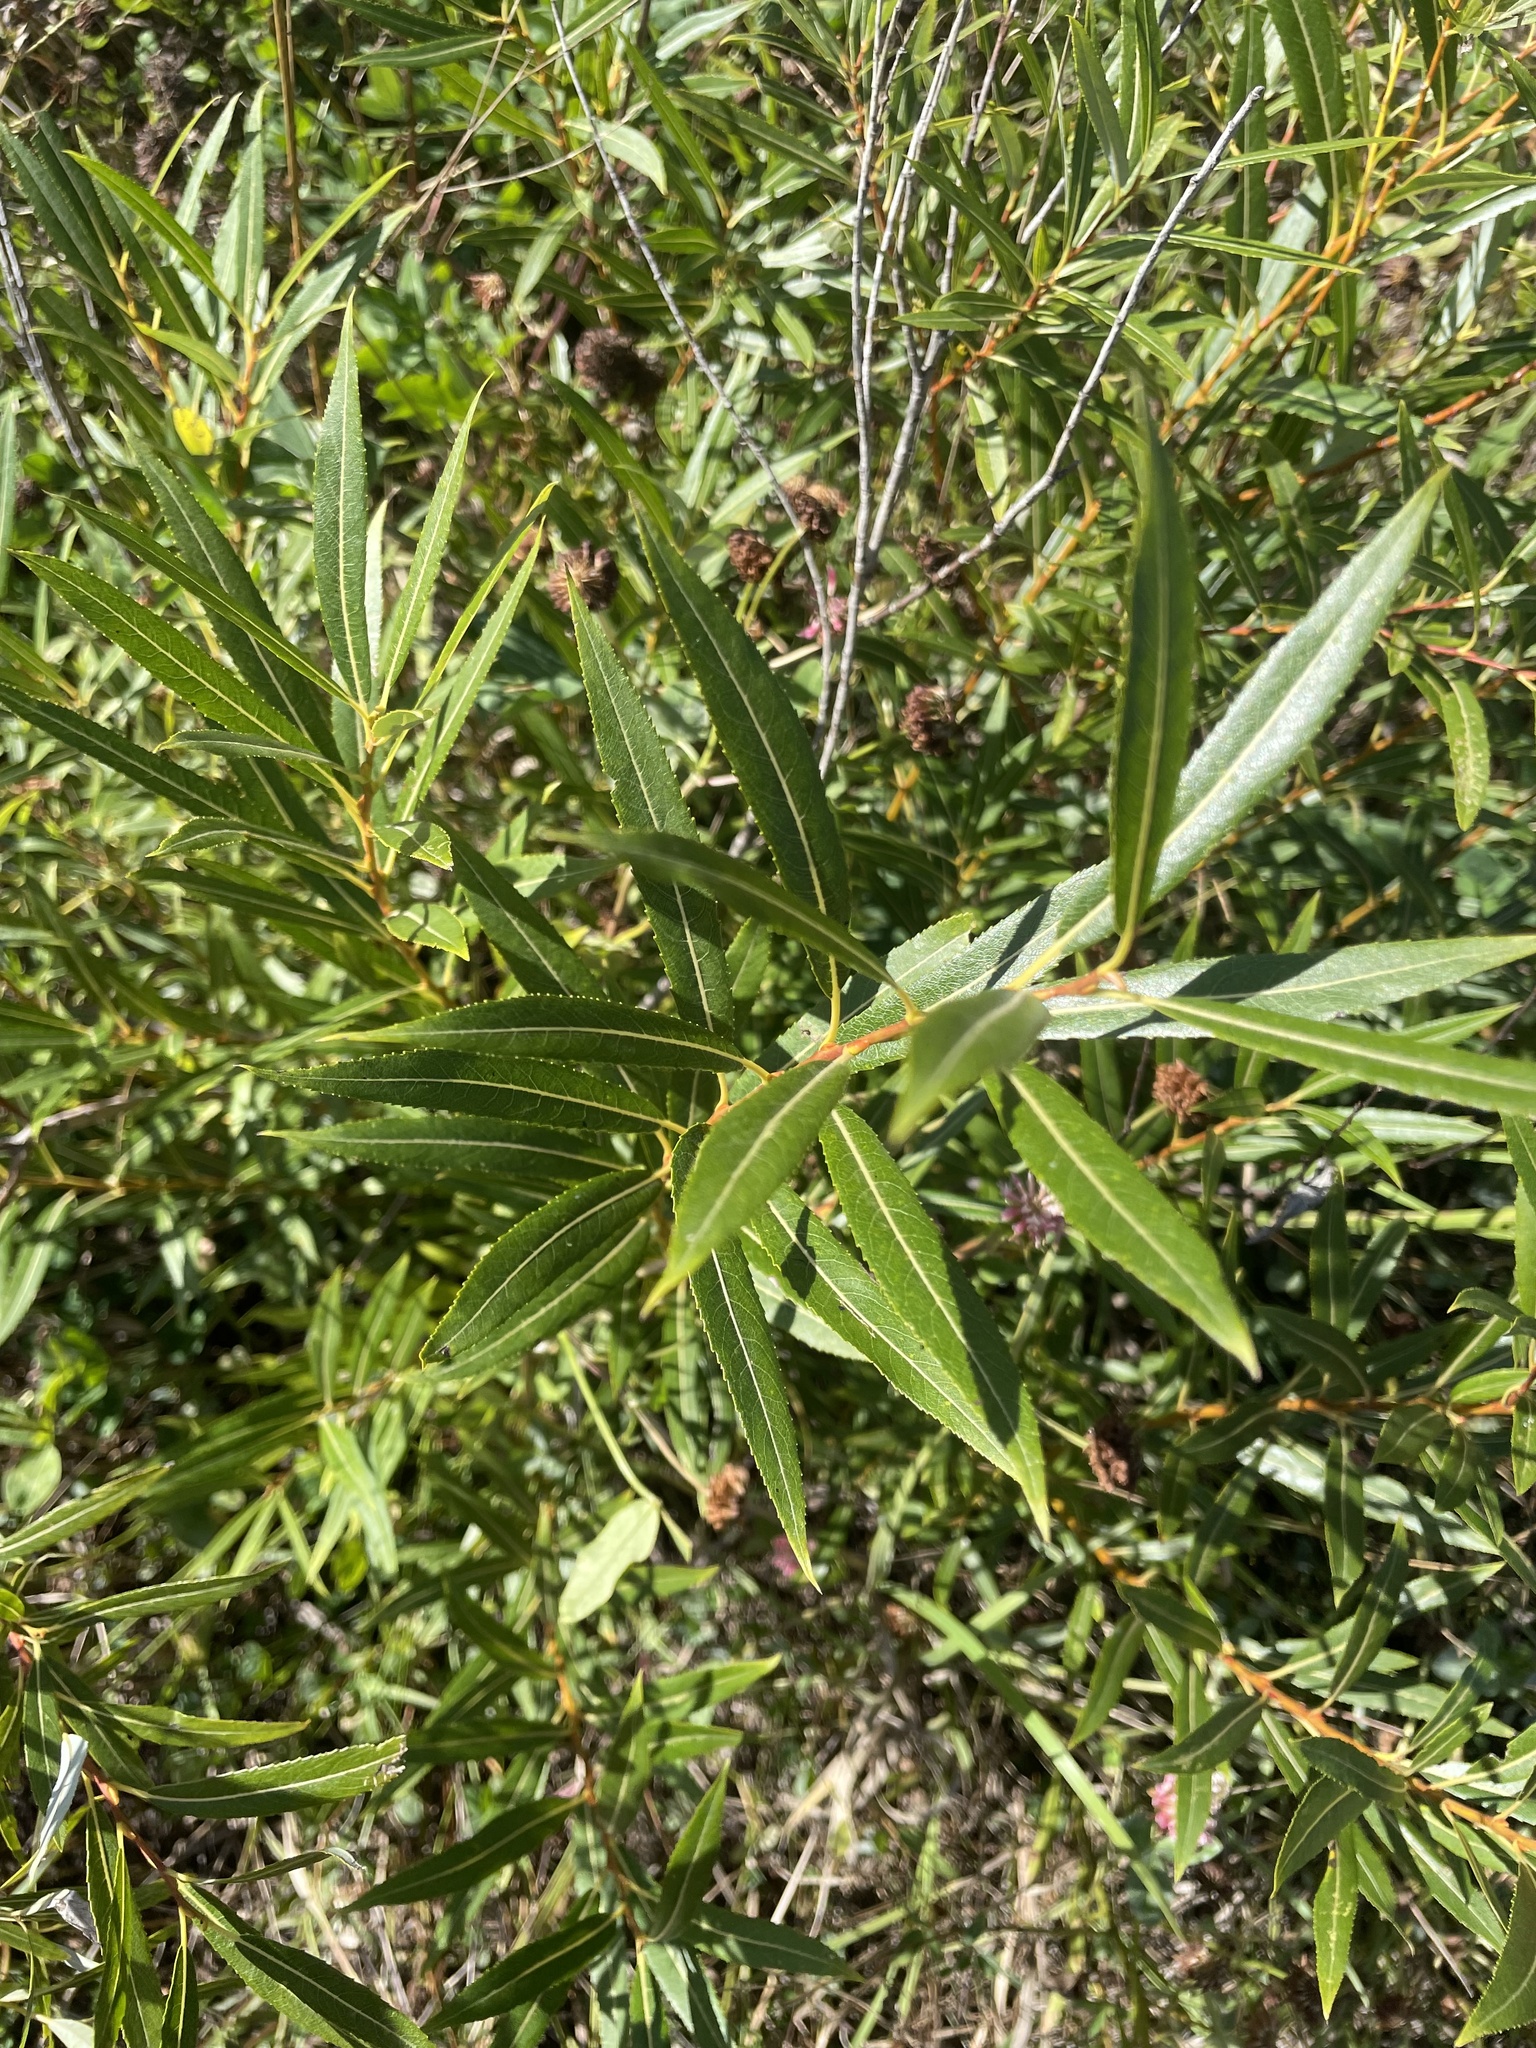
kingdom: Plantae
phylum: Tracheophyta
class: Magnoliopsida
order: Malpighiales
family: Salicaceae
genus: Salix
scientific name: Salix petiolaris
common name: Slender willow
